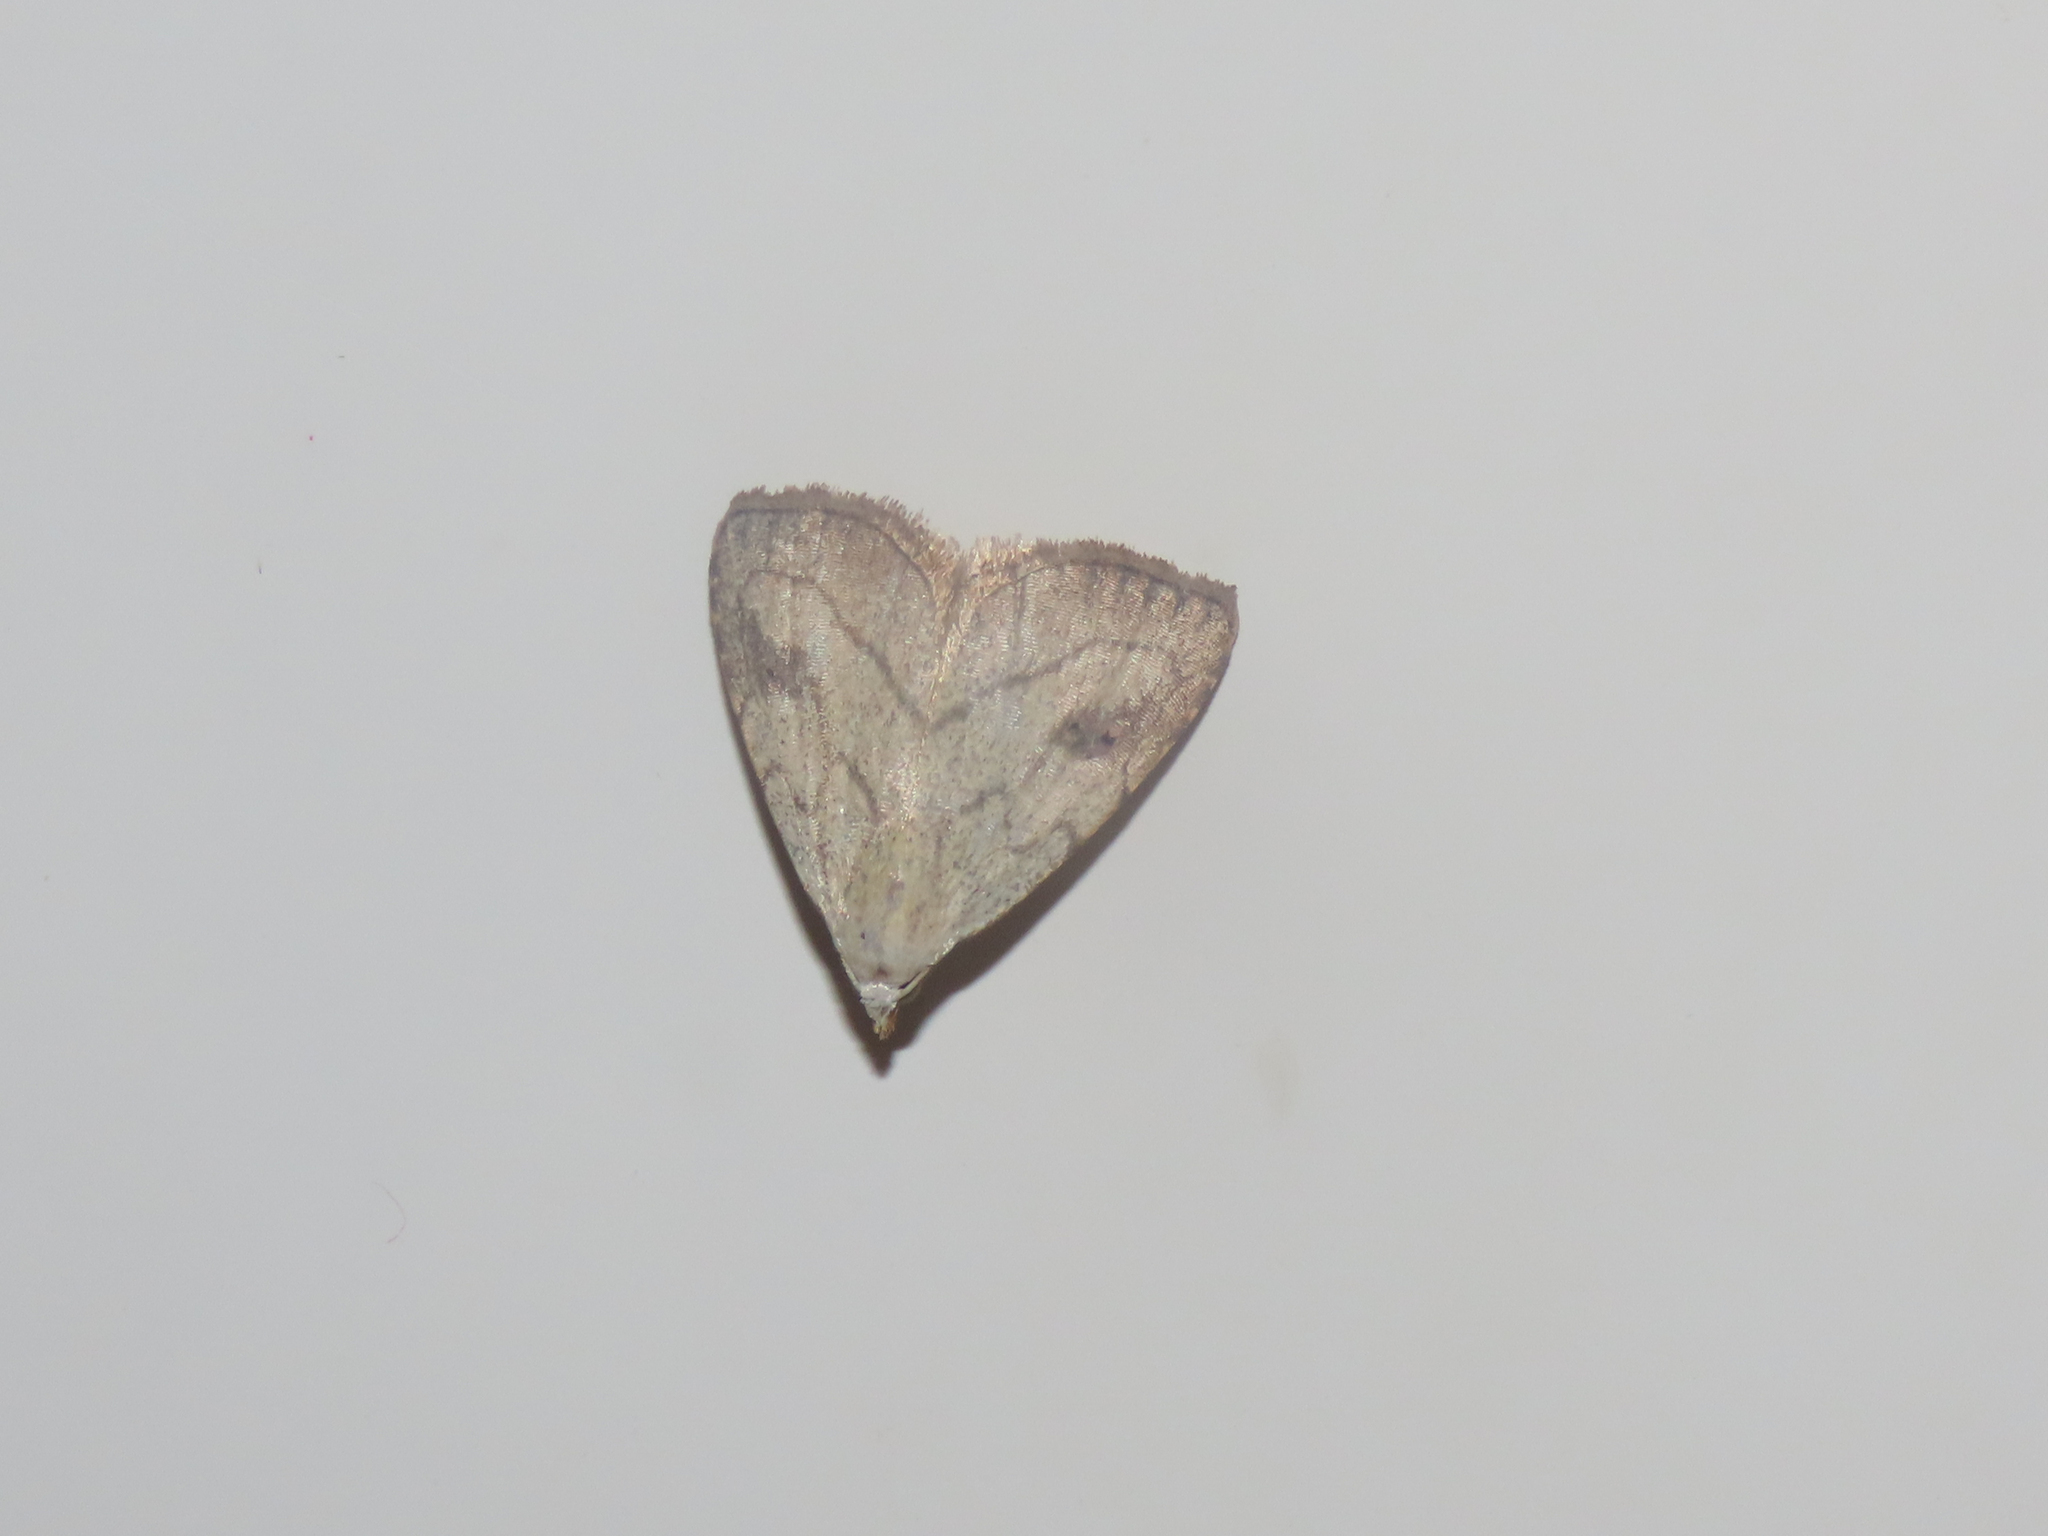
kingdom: Animalia
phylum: Arthropoda
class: Insecta
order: Lepidoptera
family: Erebidae
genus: Rivula
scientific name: Rivula propinqualis
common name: Spotted grass moth
